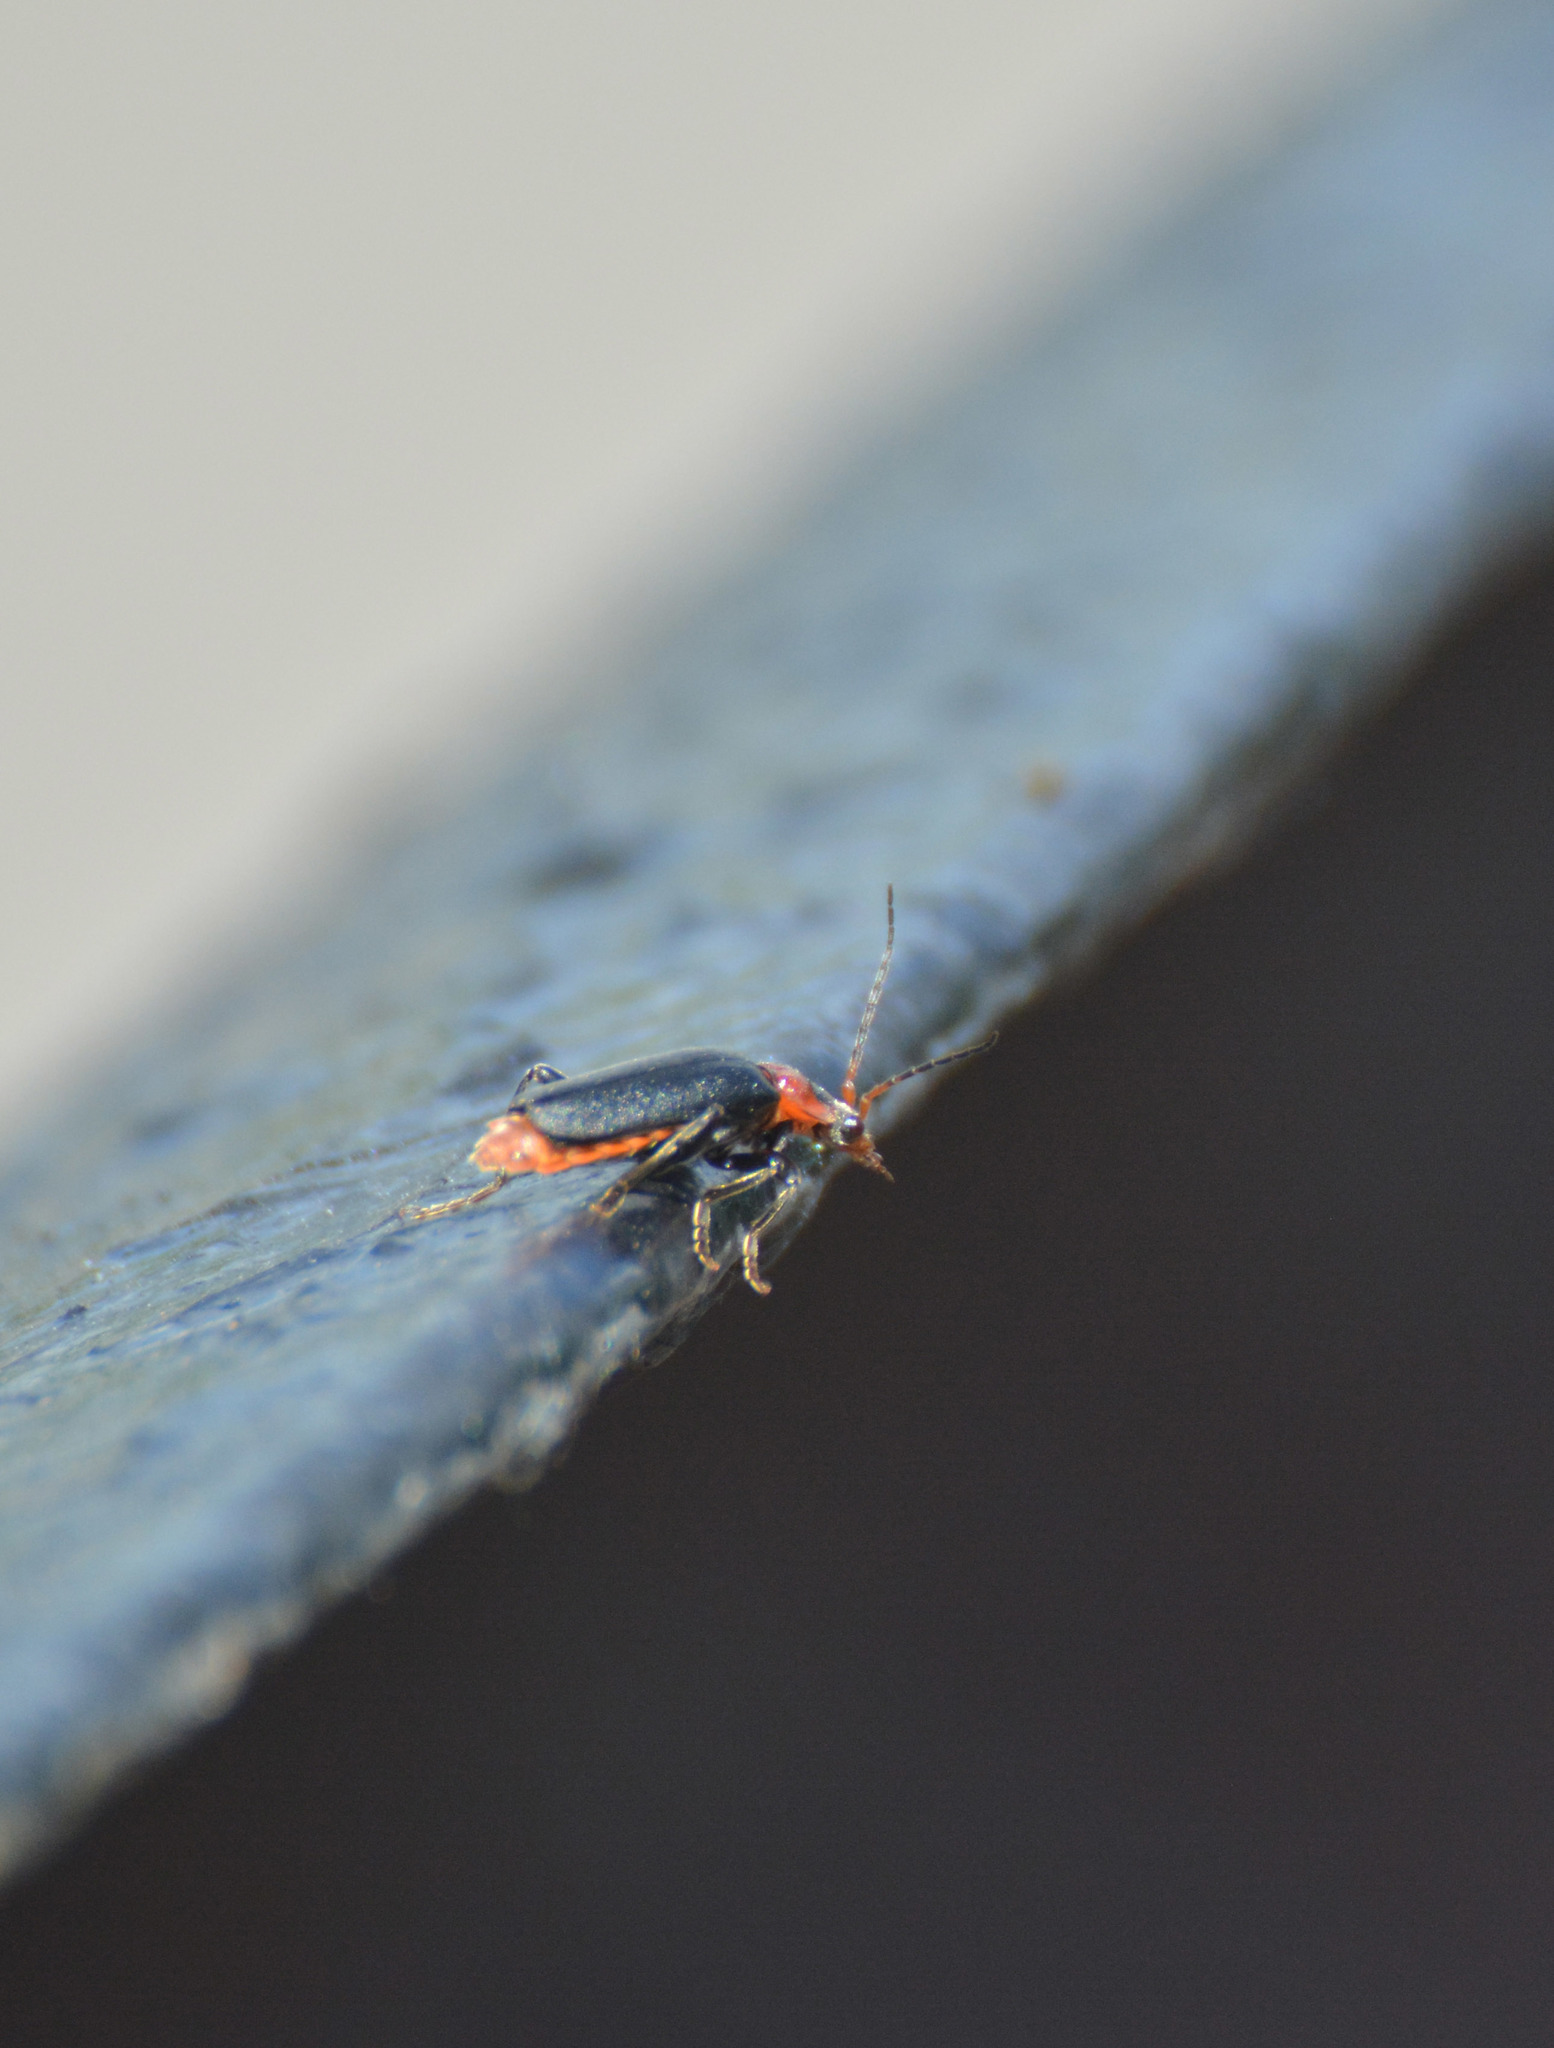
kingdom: Animalia
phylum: Arthropoda
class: Insecta
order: Coleoptera
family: Cantharidae
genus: Cantharis
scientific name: Cantharis fusca
